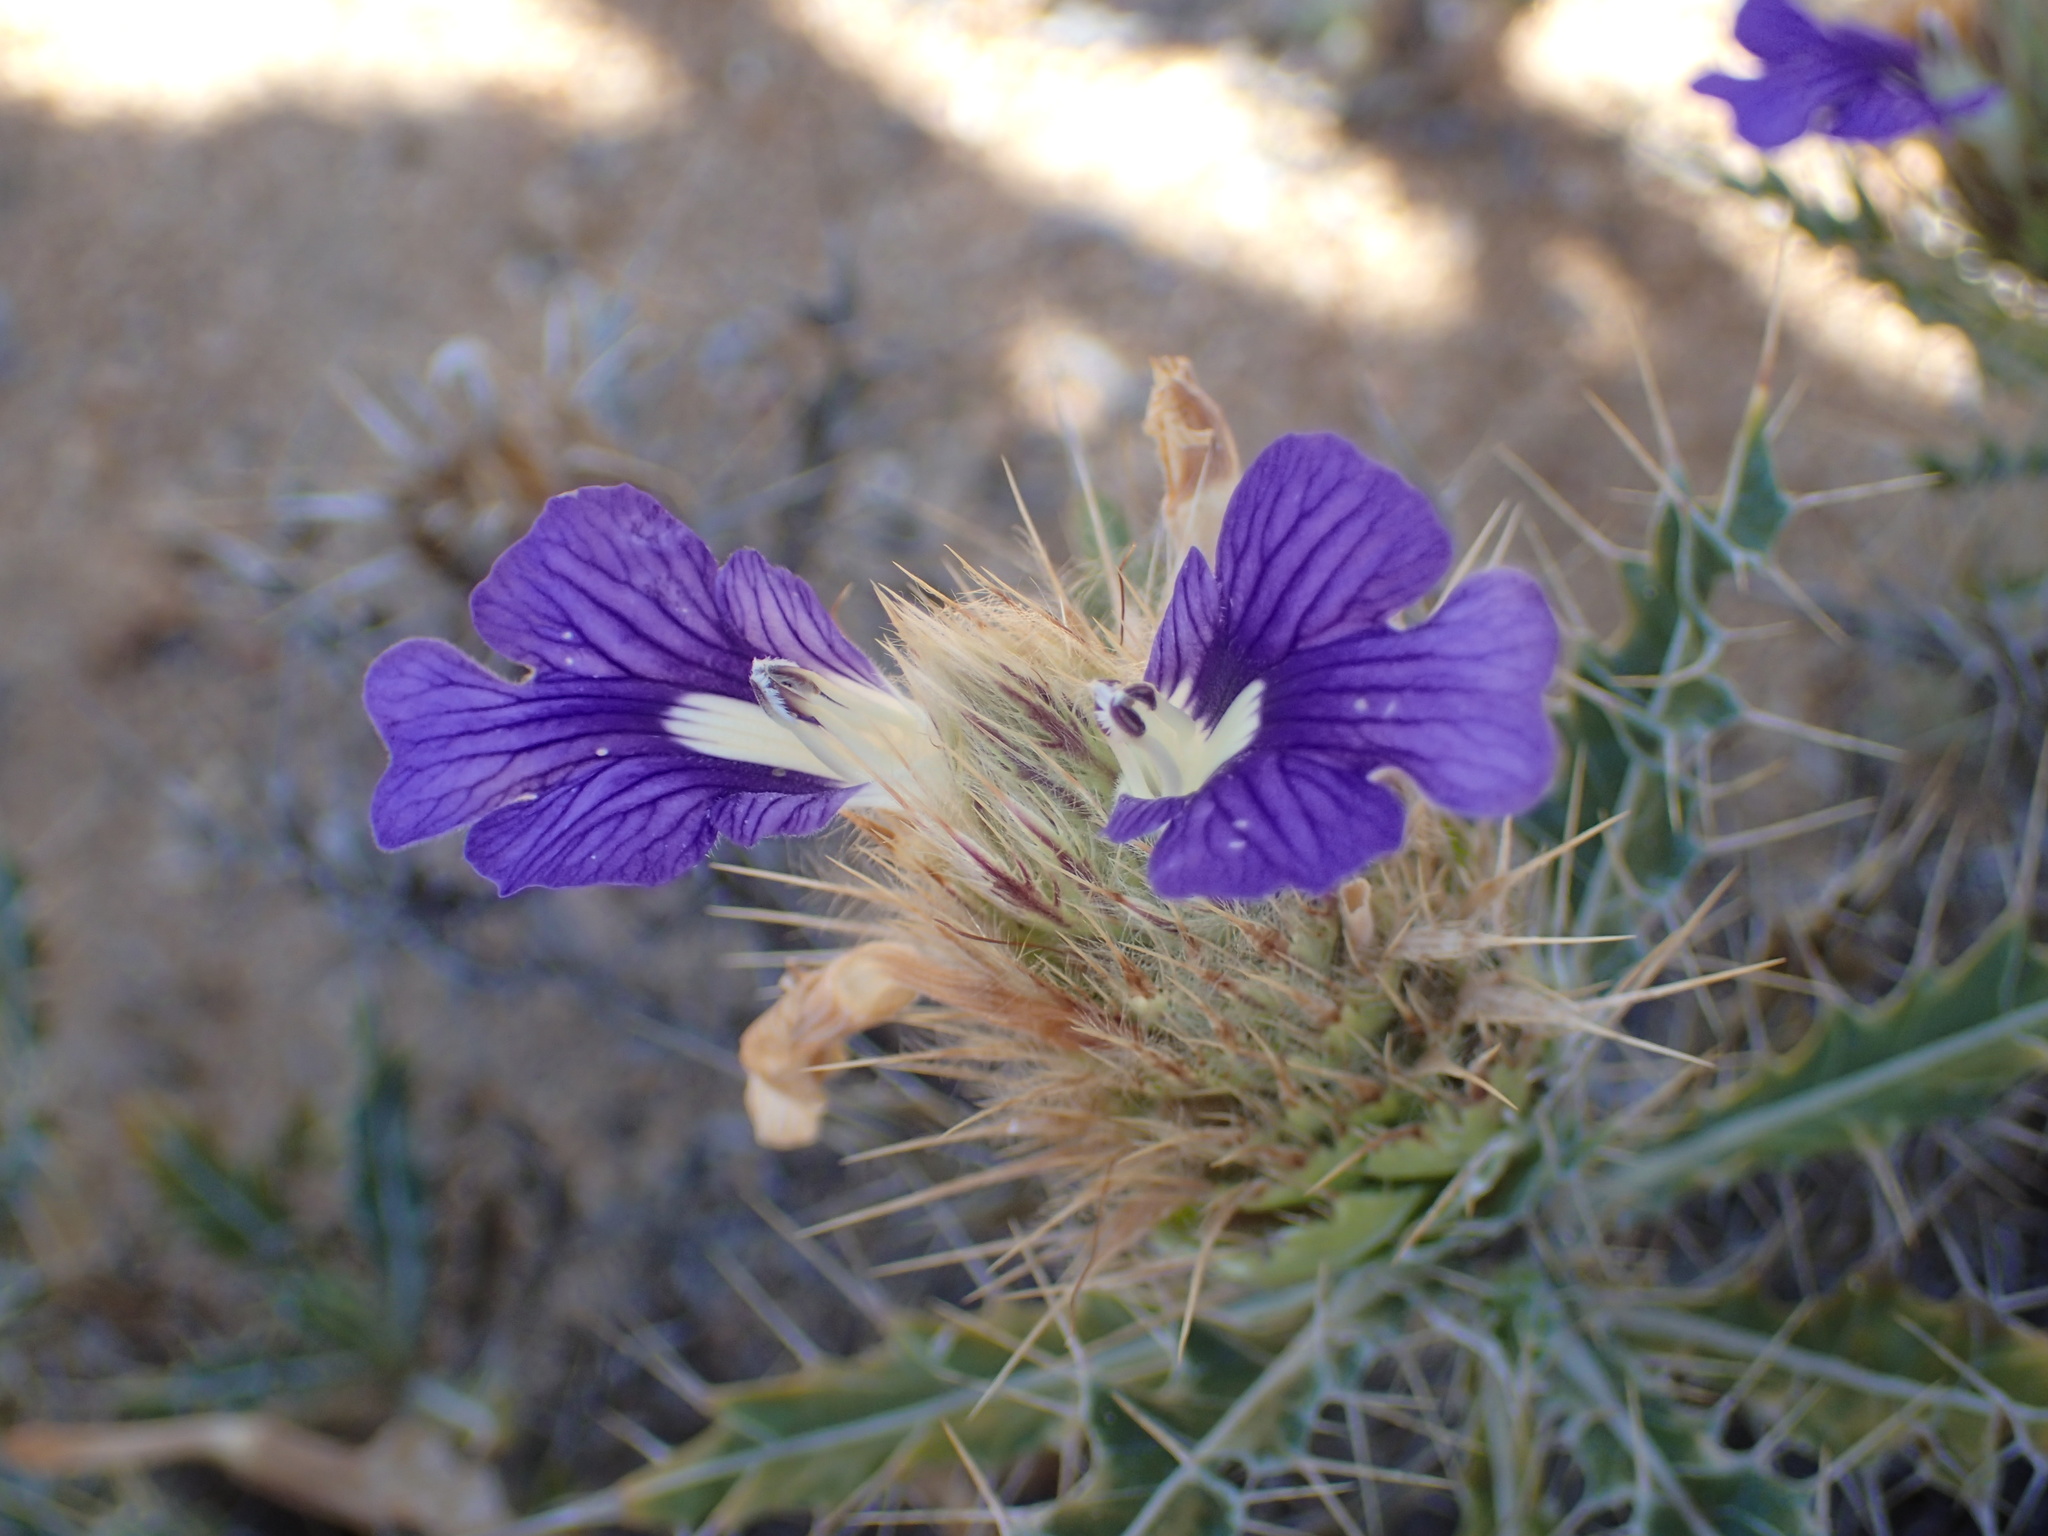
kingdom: Plantae
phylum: Tracheophyta
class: Magnoliopsida
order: Lamiales
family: Acanthaceae
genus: Acanthopsis
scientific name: Acanthopsis horrida
